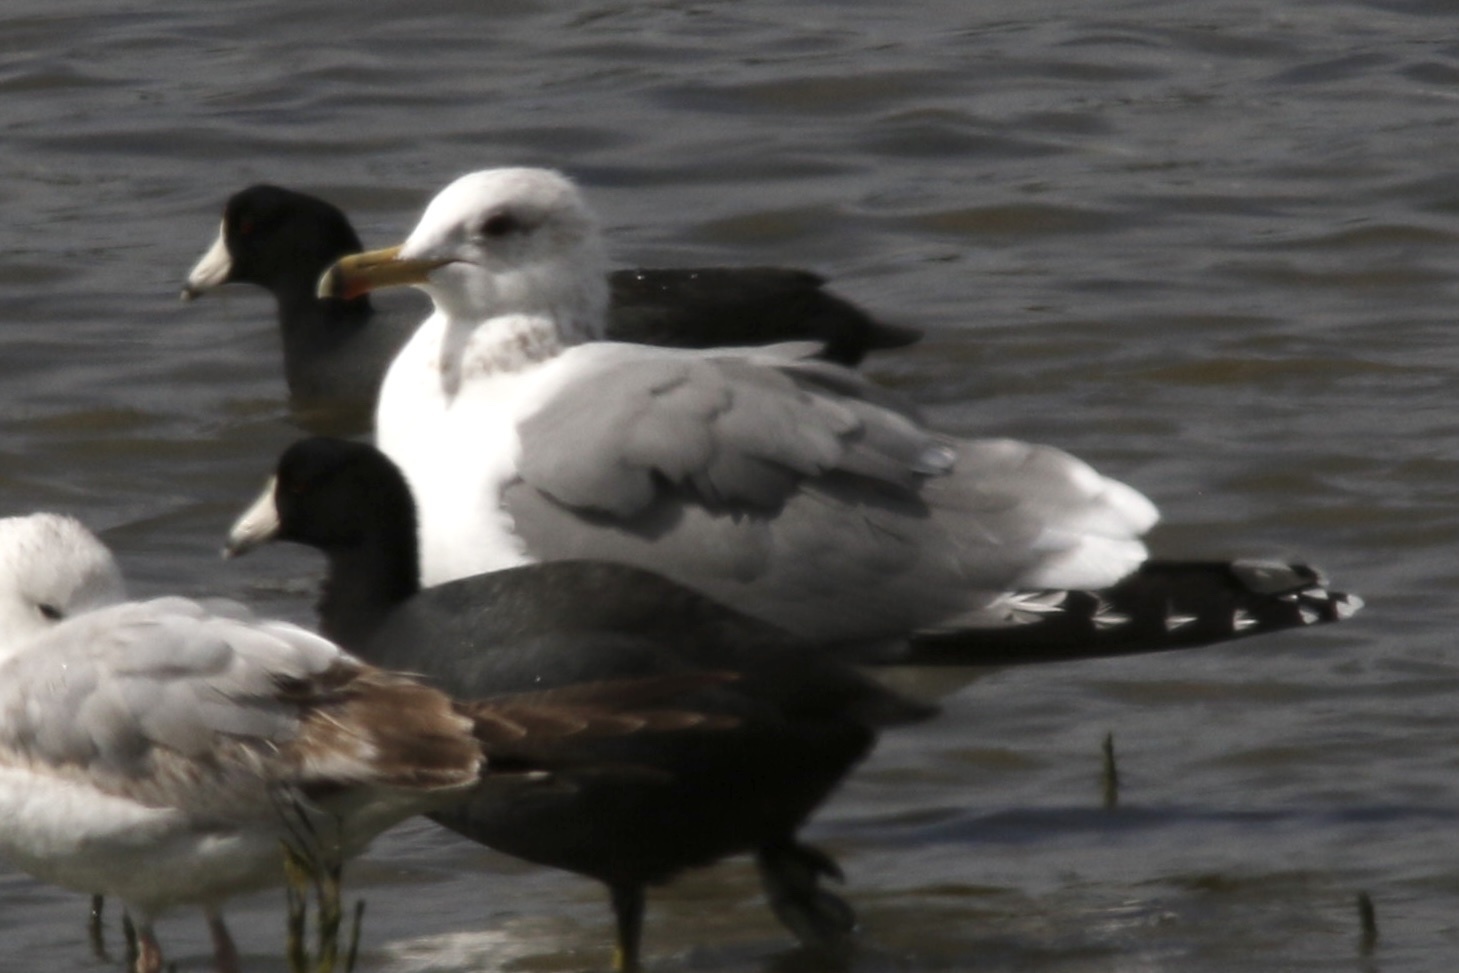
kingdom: Animalia
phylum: Chordata
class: Aves
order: Charadriiformes
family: Laridae
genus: Larus
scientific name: Larus californicus
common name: California gull
